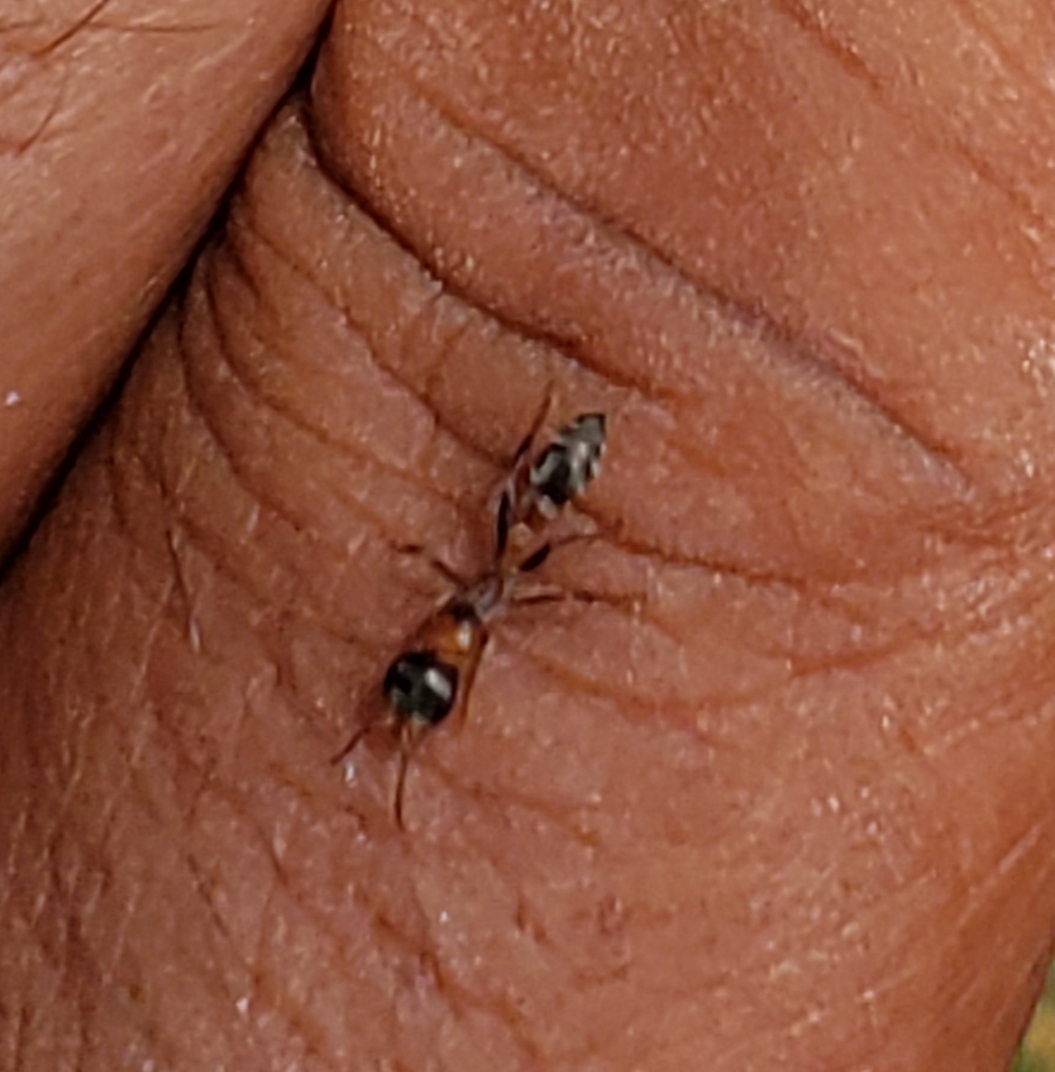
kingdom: Animalia
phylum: Arthropoda
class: Insecta
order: Hymenoptera
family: Formicidae
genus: Pseudomyrmex
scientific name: Pseudomyrmex gracilis
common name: Graceful twig ant
